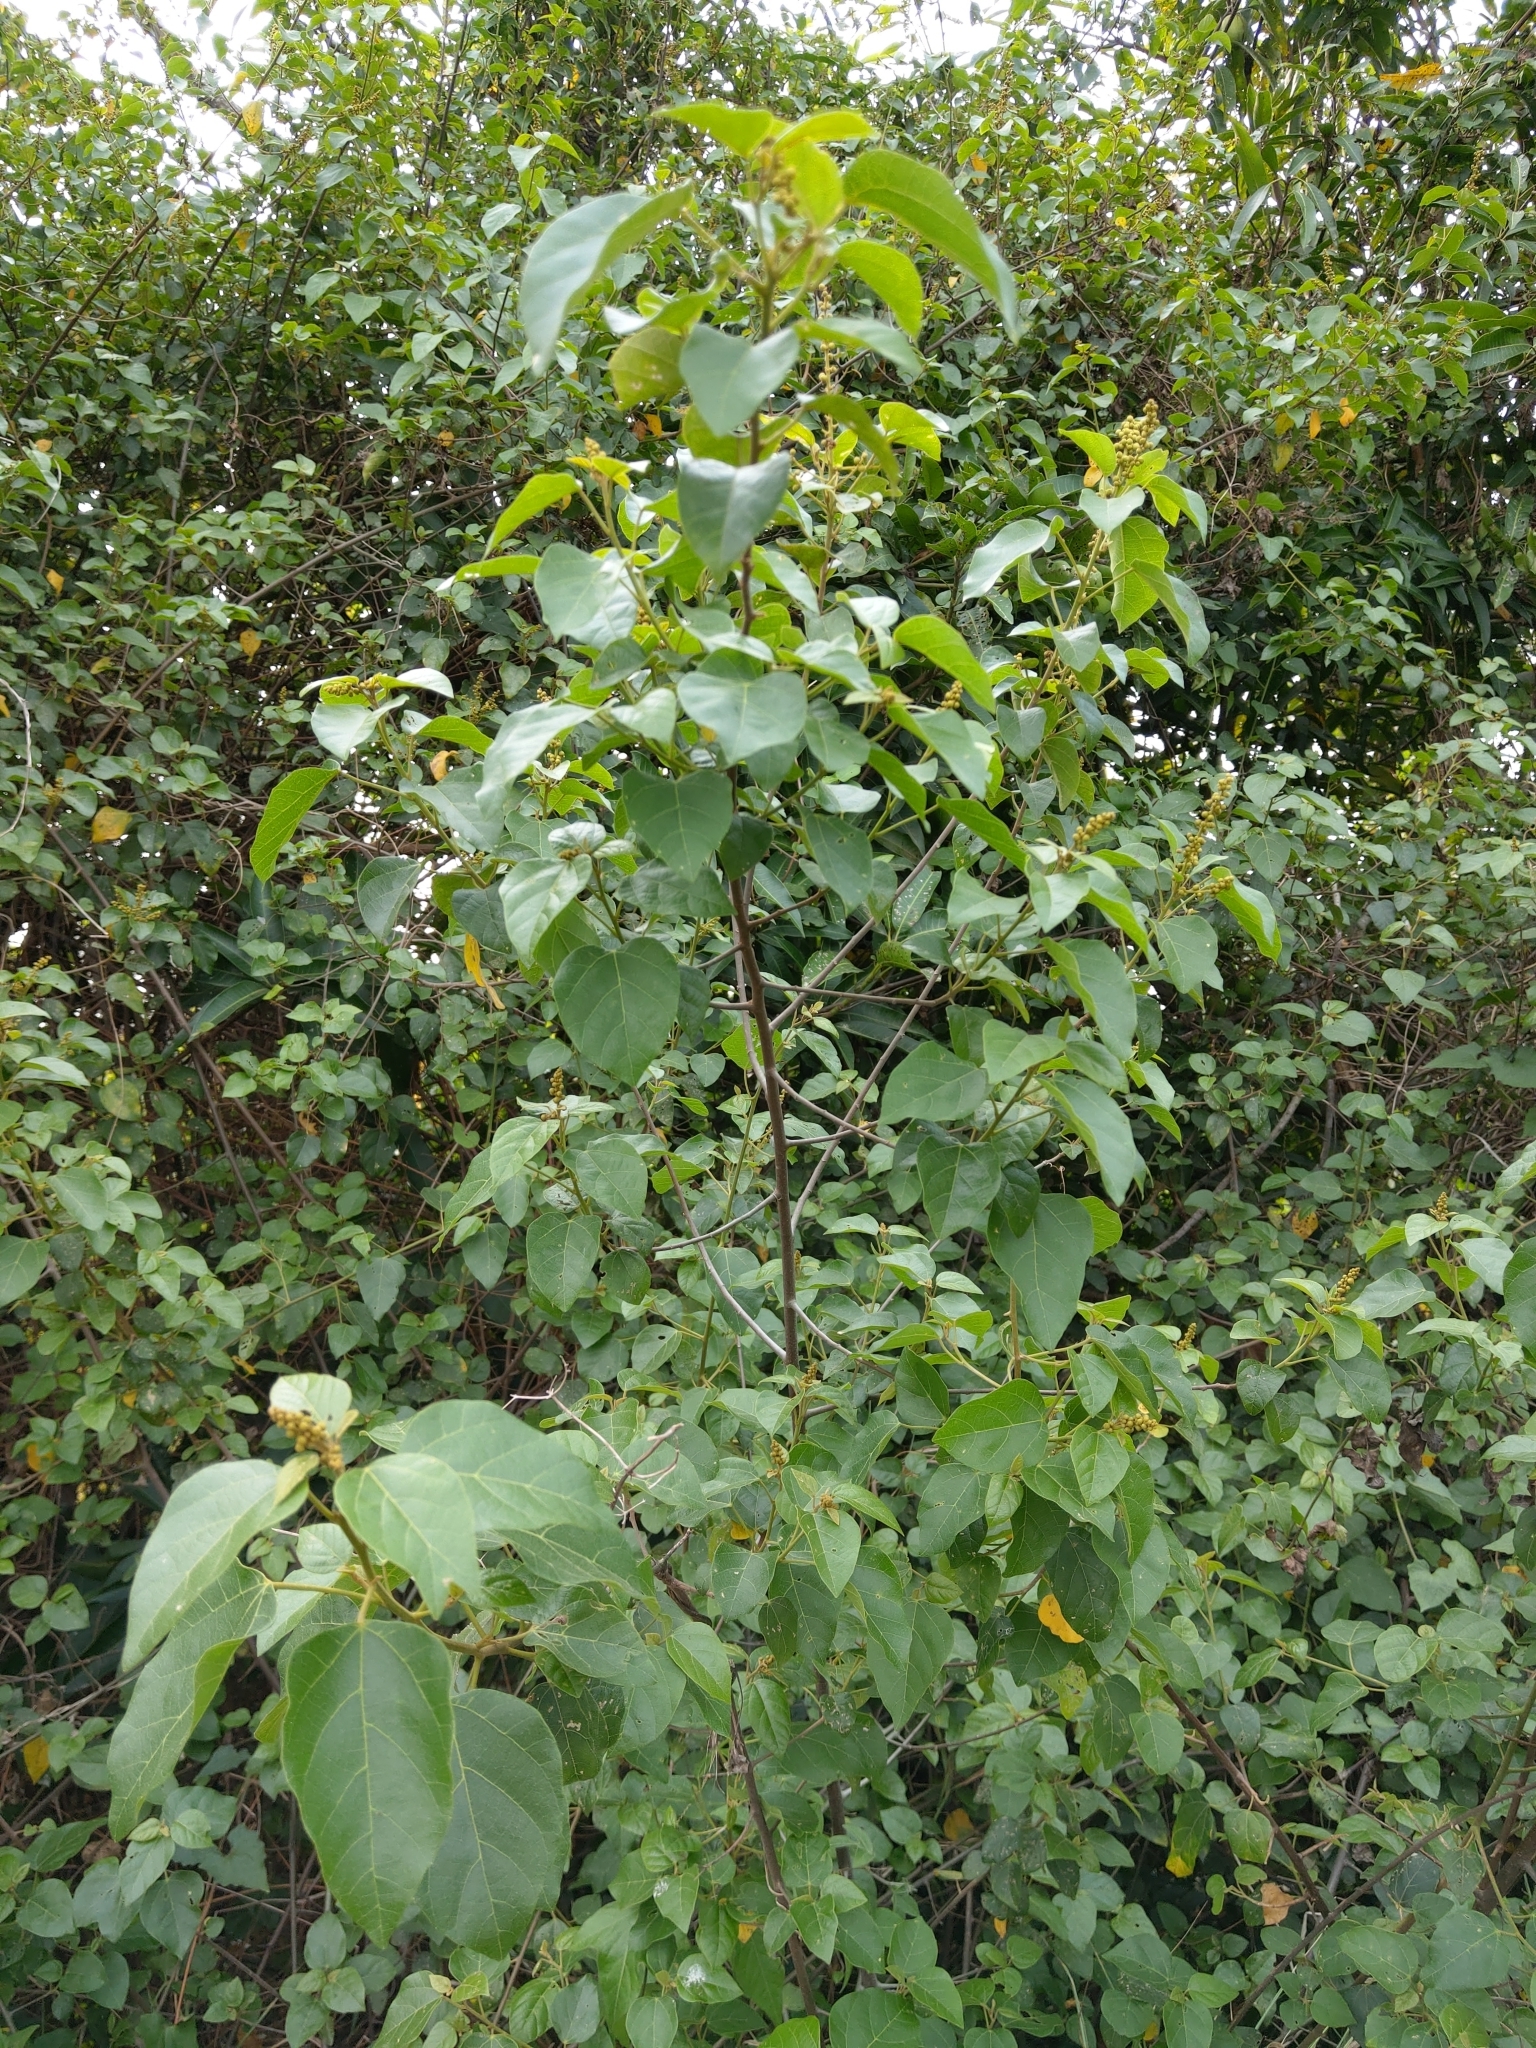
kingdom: Plantae
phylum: Tracheophyta
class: Magnoliopsida
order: Malpighiales
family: Euphorbiaceae
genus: Melanolepis
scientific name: Melanolepis multiglandulosa
